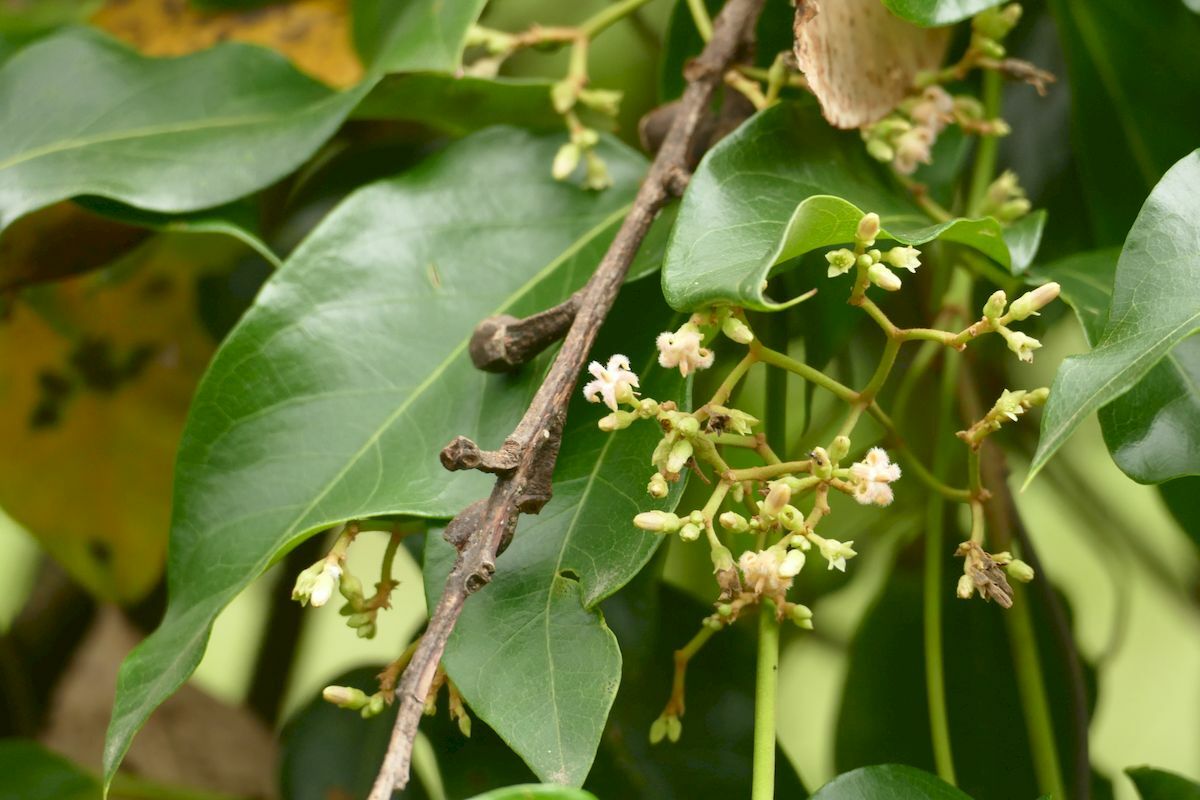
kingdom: Plantae
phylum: Tracheophyta
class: Magnoliopsida
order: Gentianales
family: Apocynaceae
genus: Parsonsia
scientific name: Parsonsia straminea
